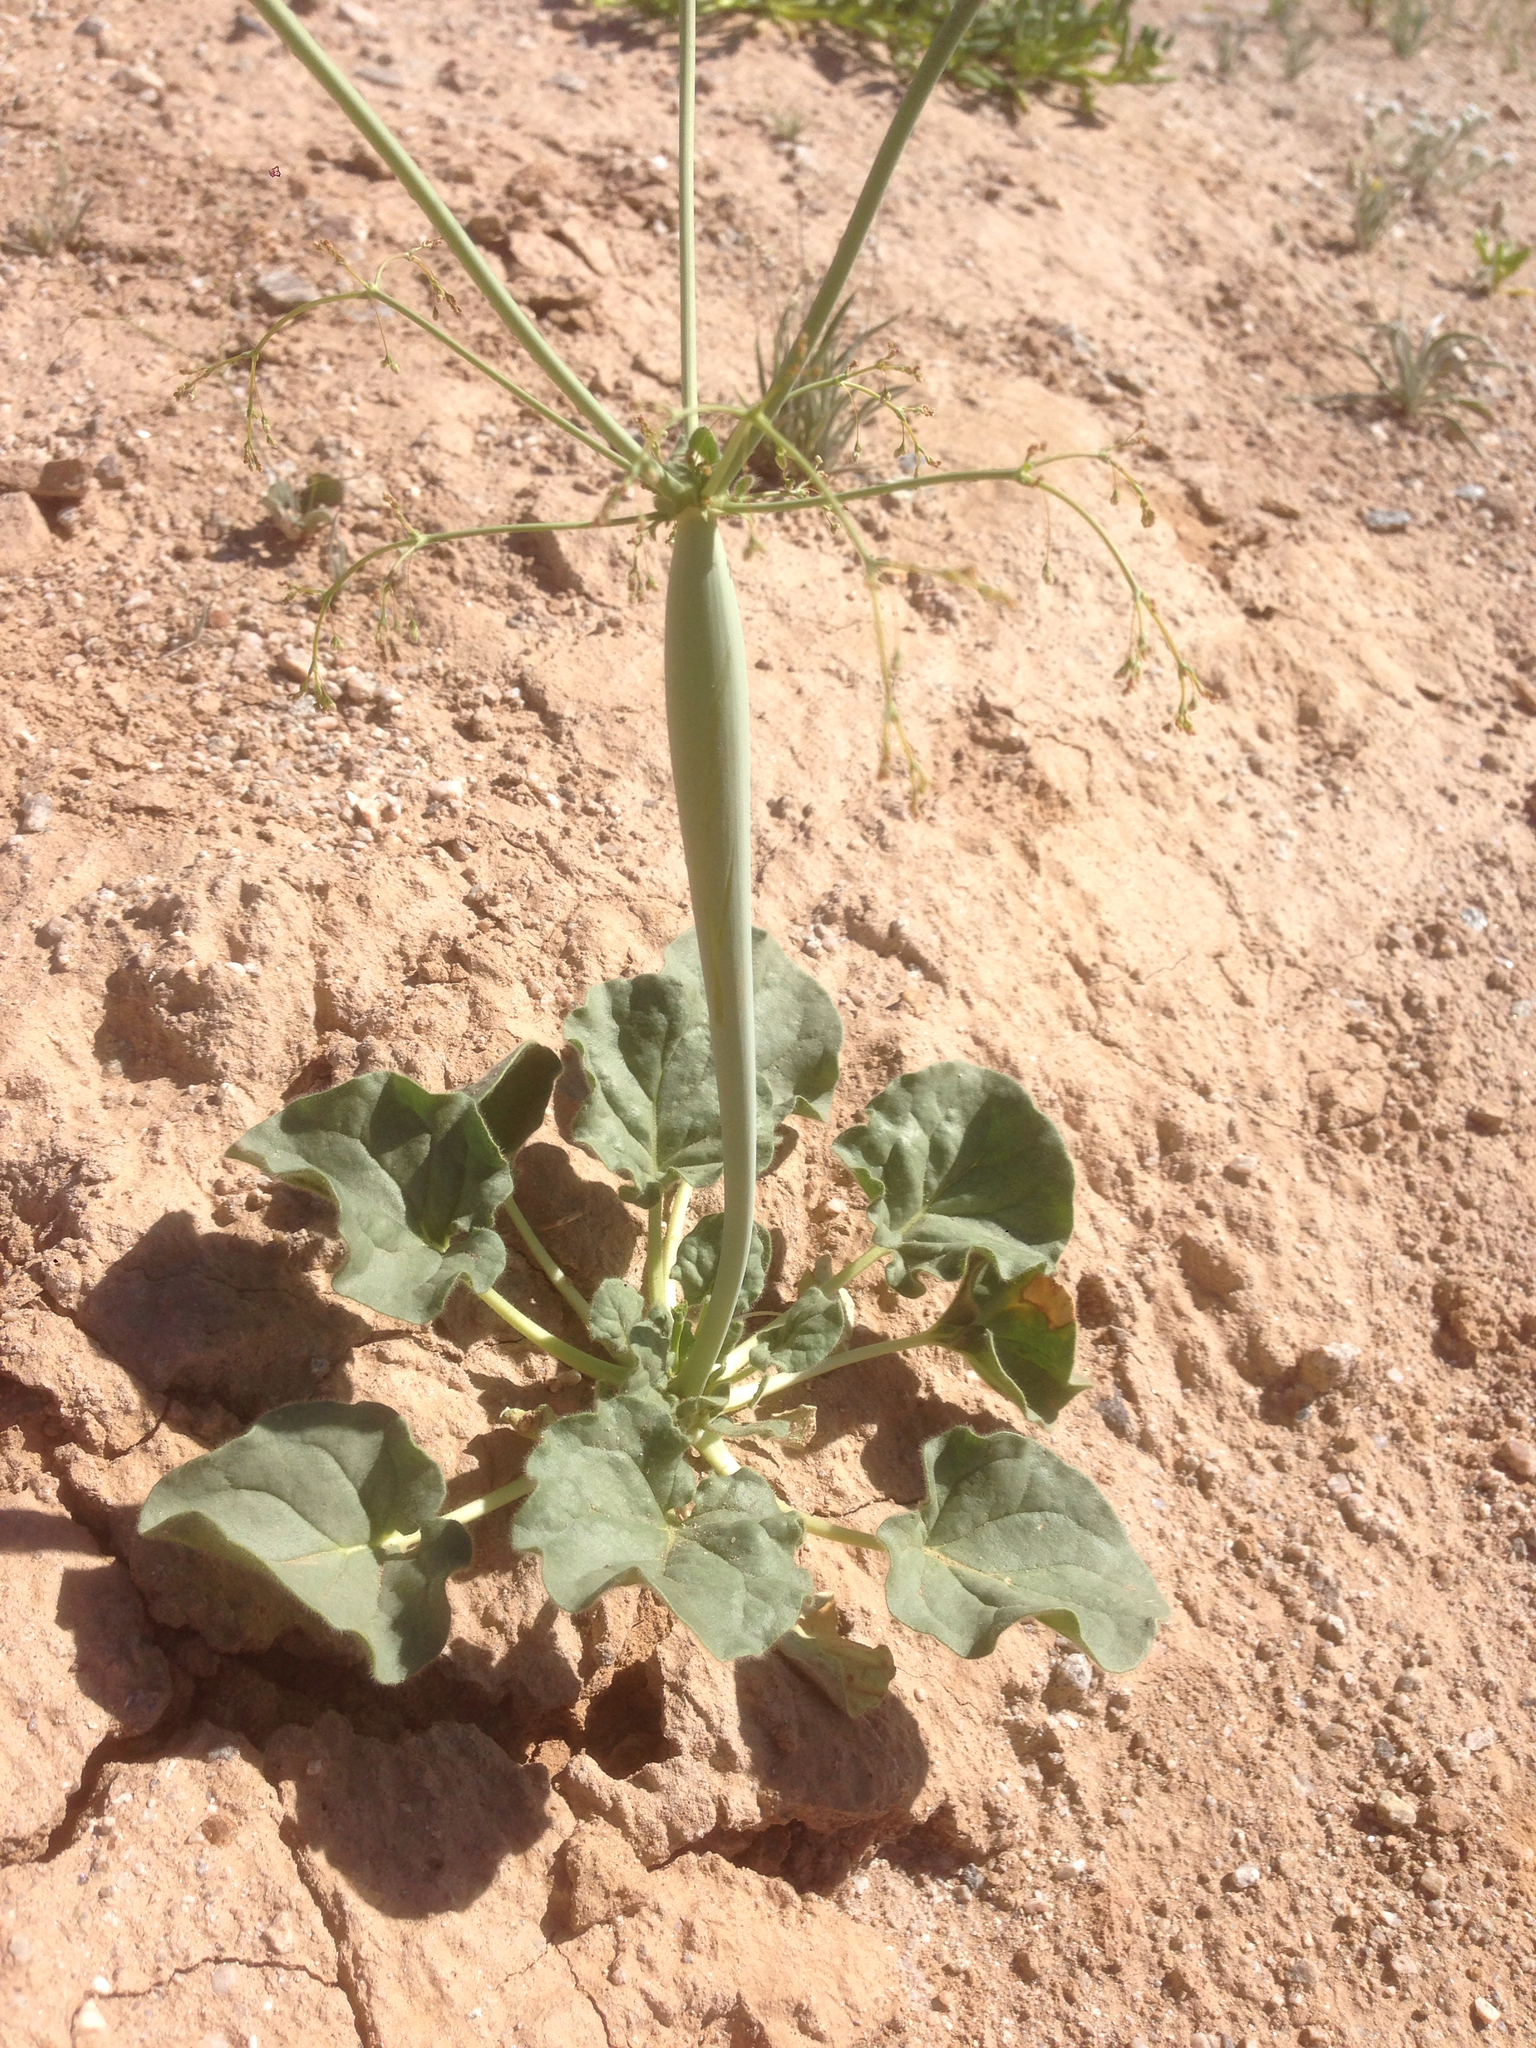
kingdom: Plantae
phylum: Tracheophyta
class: Magnoliopsida
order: Caryophyllales
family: Polygonaceae
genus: Eriogonum
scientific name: Eriogonum trichopes
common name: Little desert trumpet
